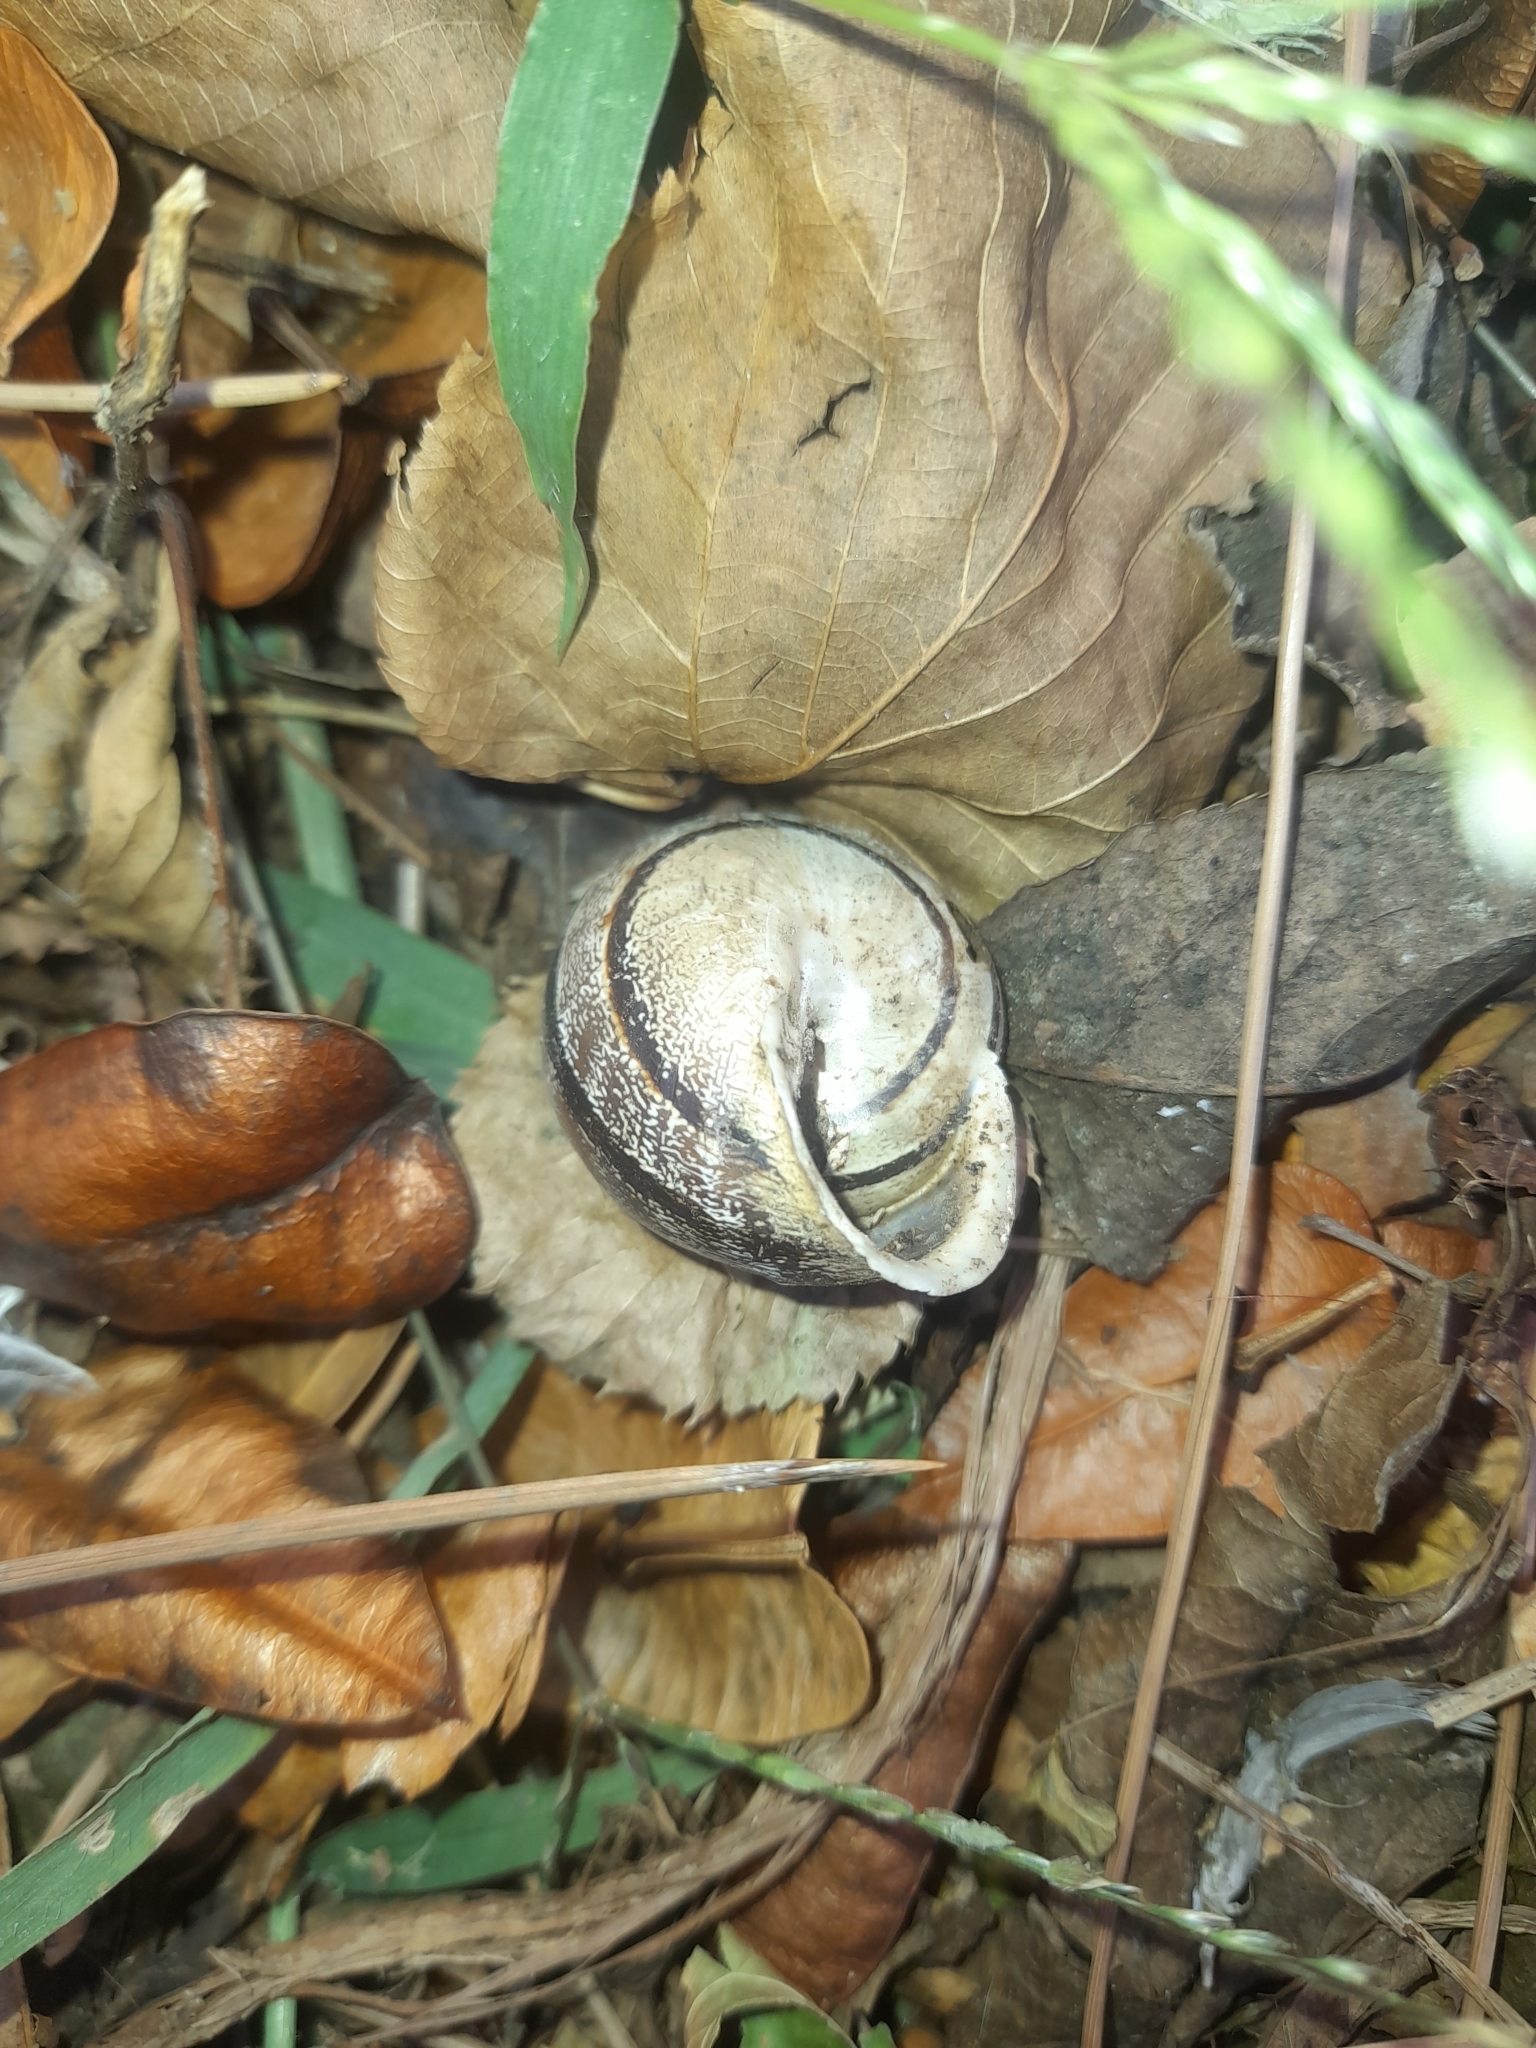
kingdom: Animalia
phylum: Mollusca
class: Gastropoda
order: Stylommatophora
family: Helicidae
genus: Eobania
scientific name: Eobania vermiculata
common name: Chocolateband snail
